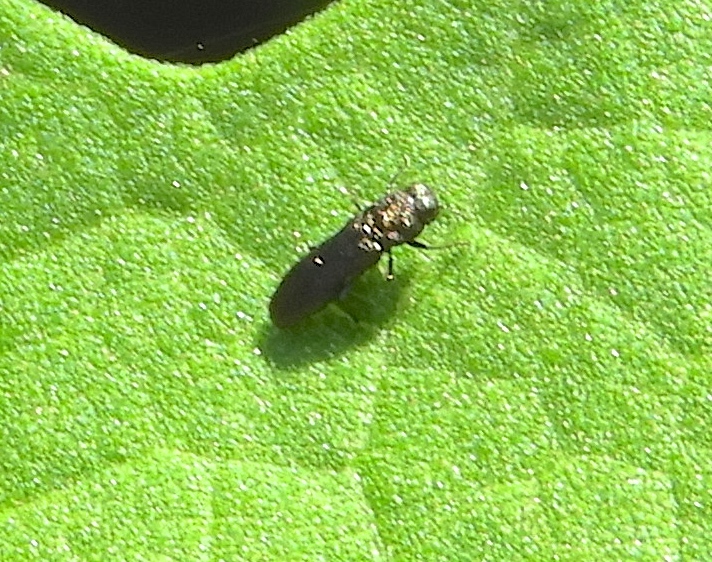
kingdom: Animalia
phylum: Arthropoda
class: Insecta
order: Coleoptera
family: Buprestidae
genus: Paragrilus
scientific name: Paragrilus
